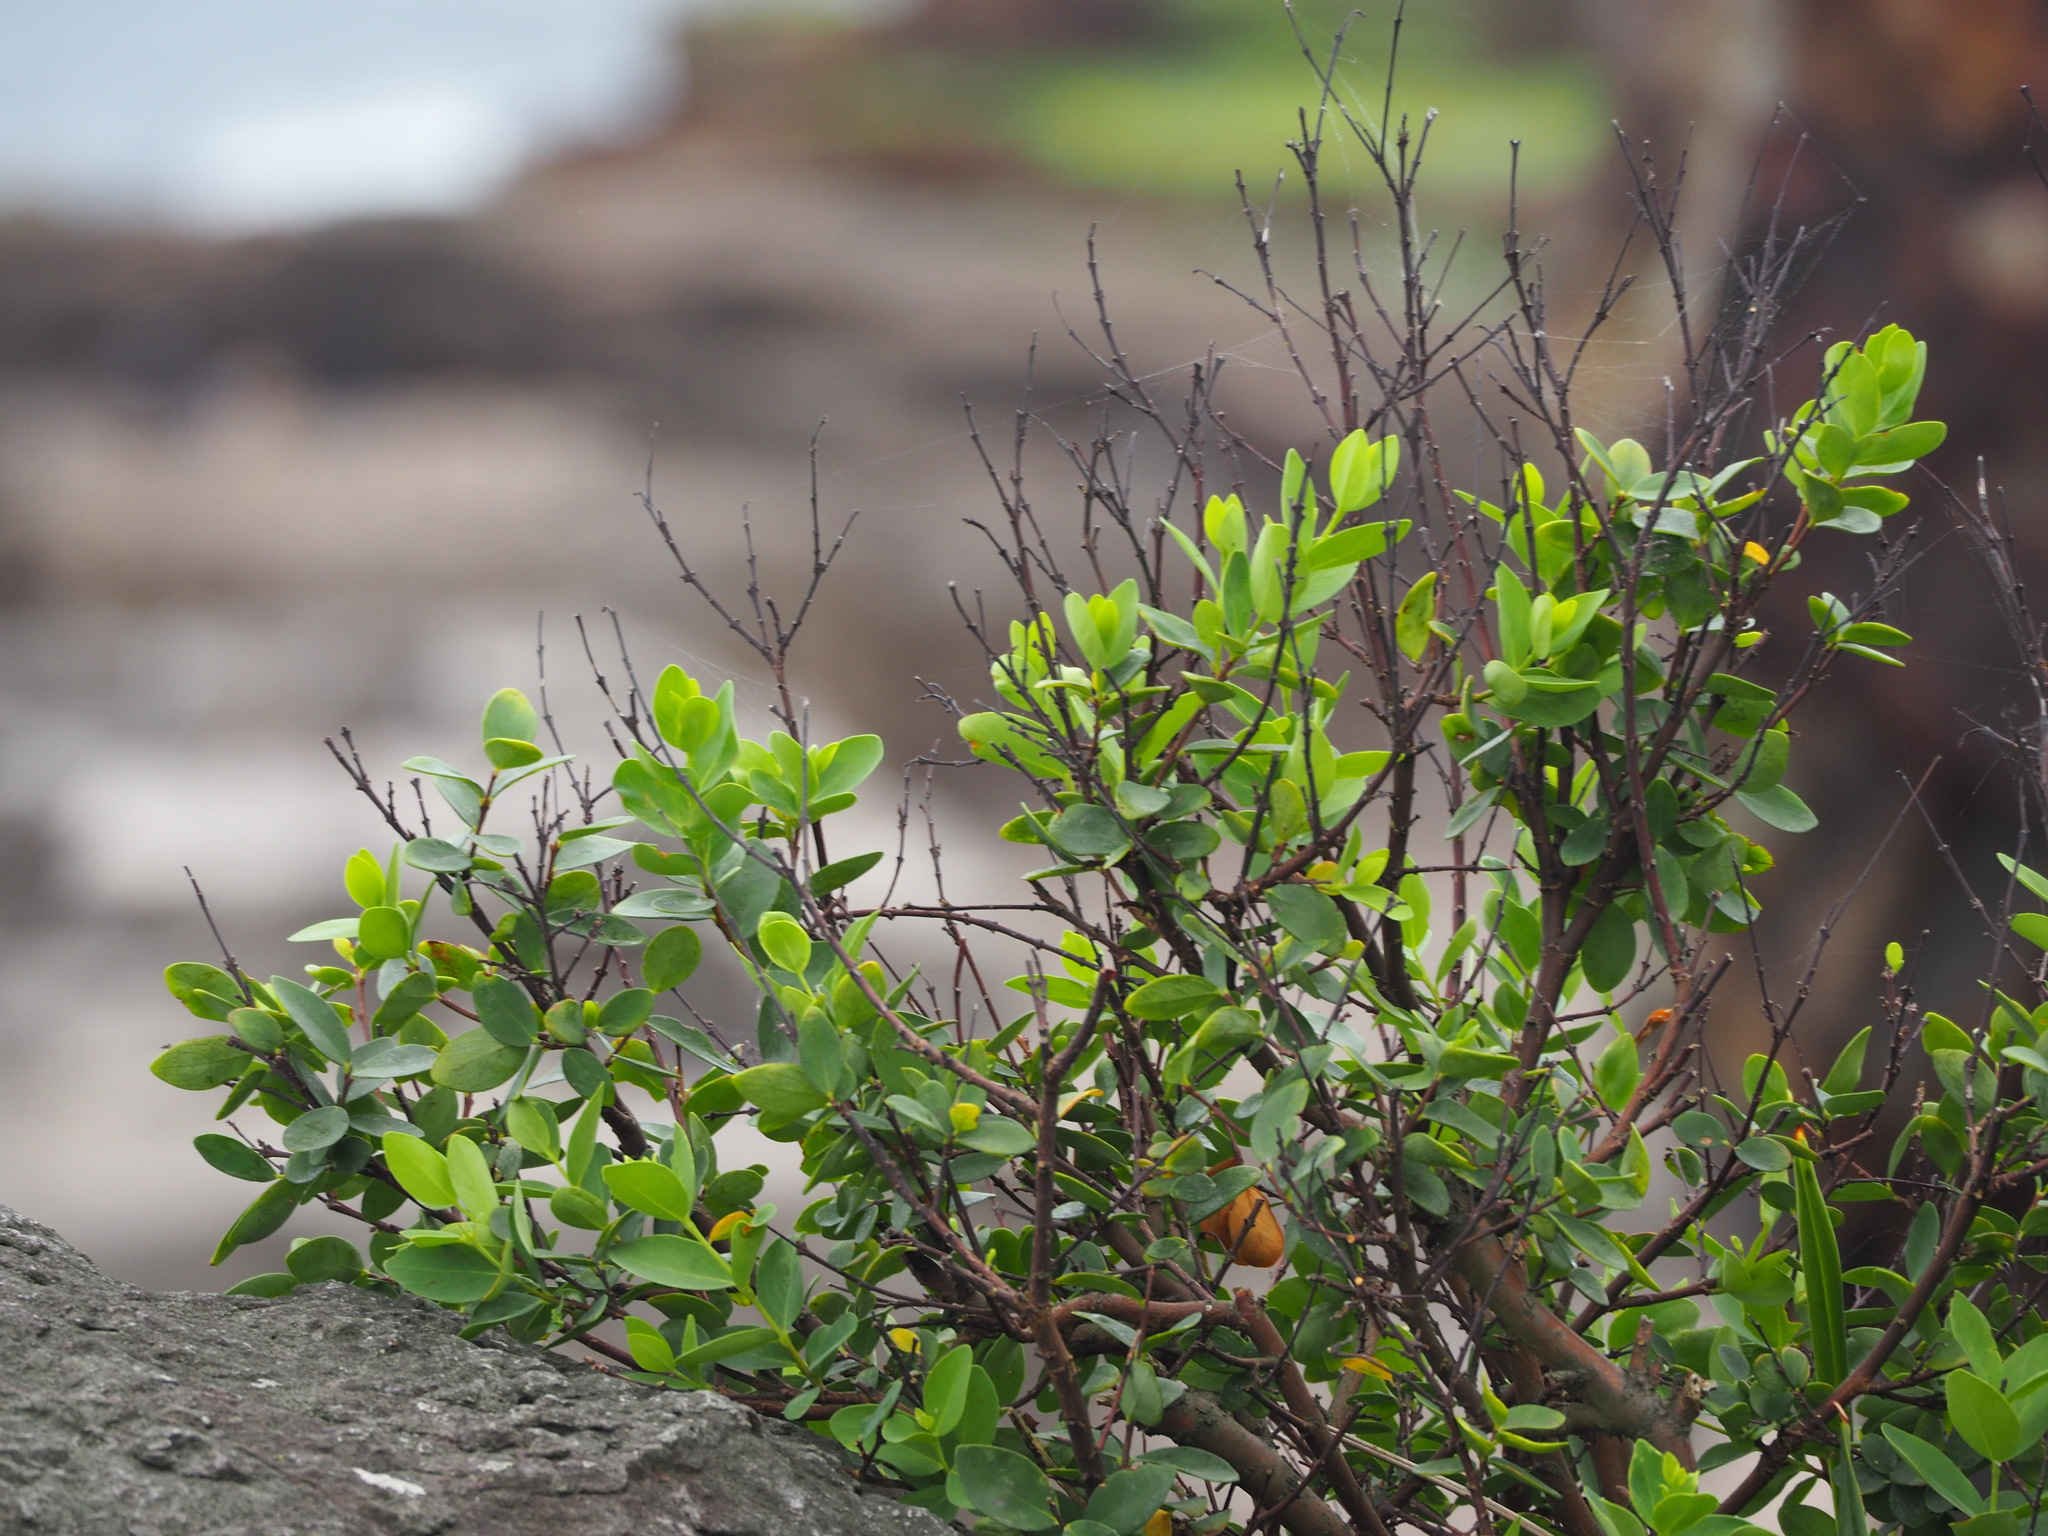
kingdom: Plantae
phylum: Tracheophyta
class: Magnoliopsida
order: Malvales
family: Thymelaeaceae
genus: Wikstroemia
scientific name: Wikstroemia indica
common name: Tiebush
